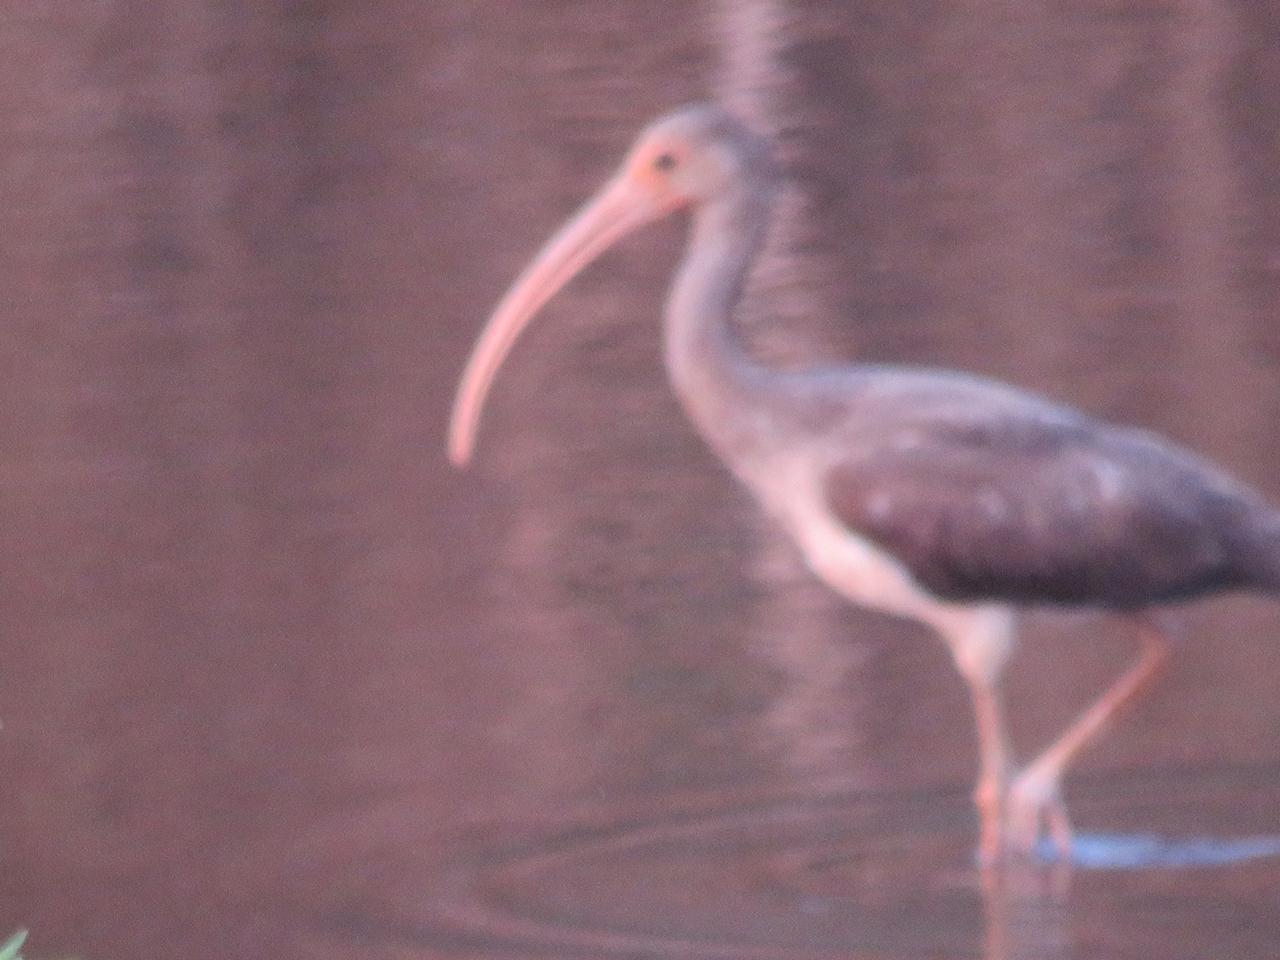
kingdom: Animalia
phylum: Chordata
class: Aves
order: Pelecaniformes
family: Threskiornithidae
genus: Eudocimus
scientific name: Eudocimus albus
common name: White ibis
